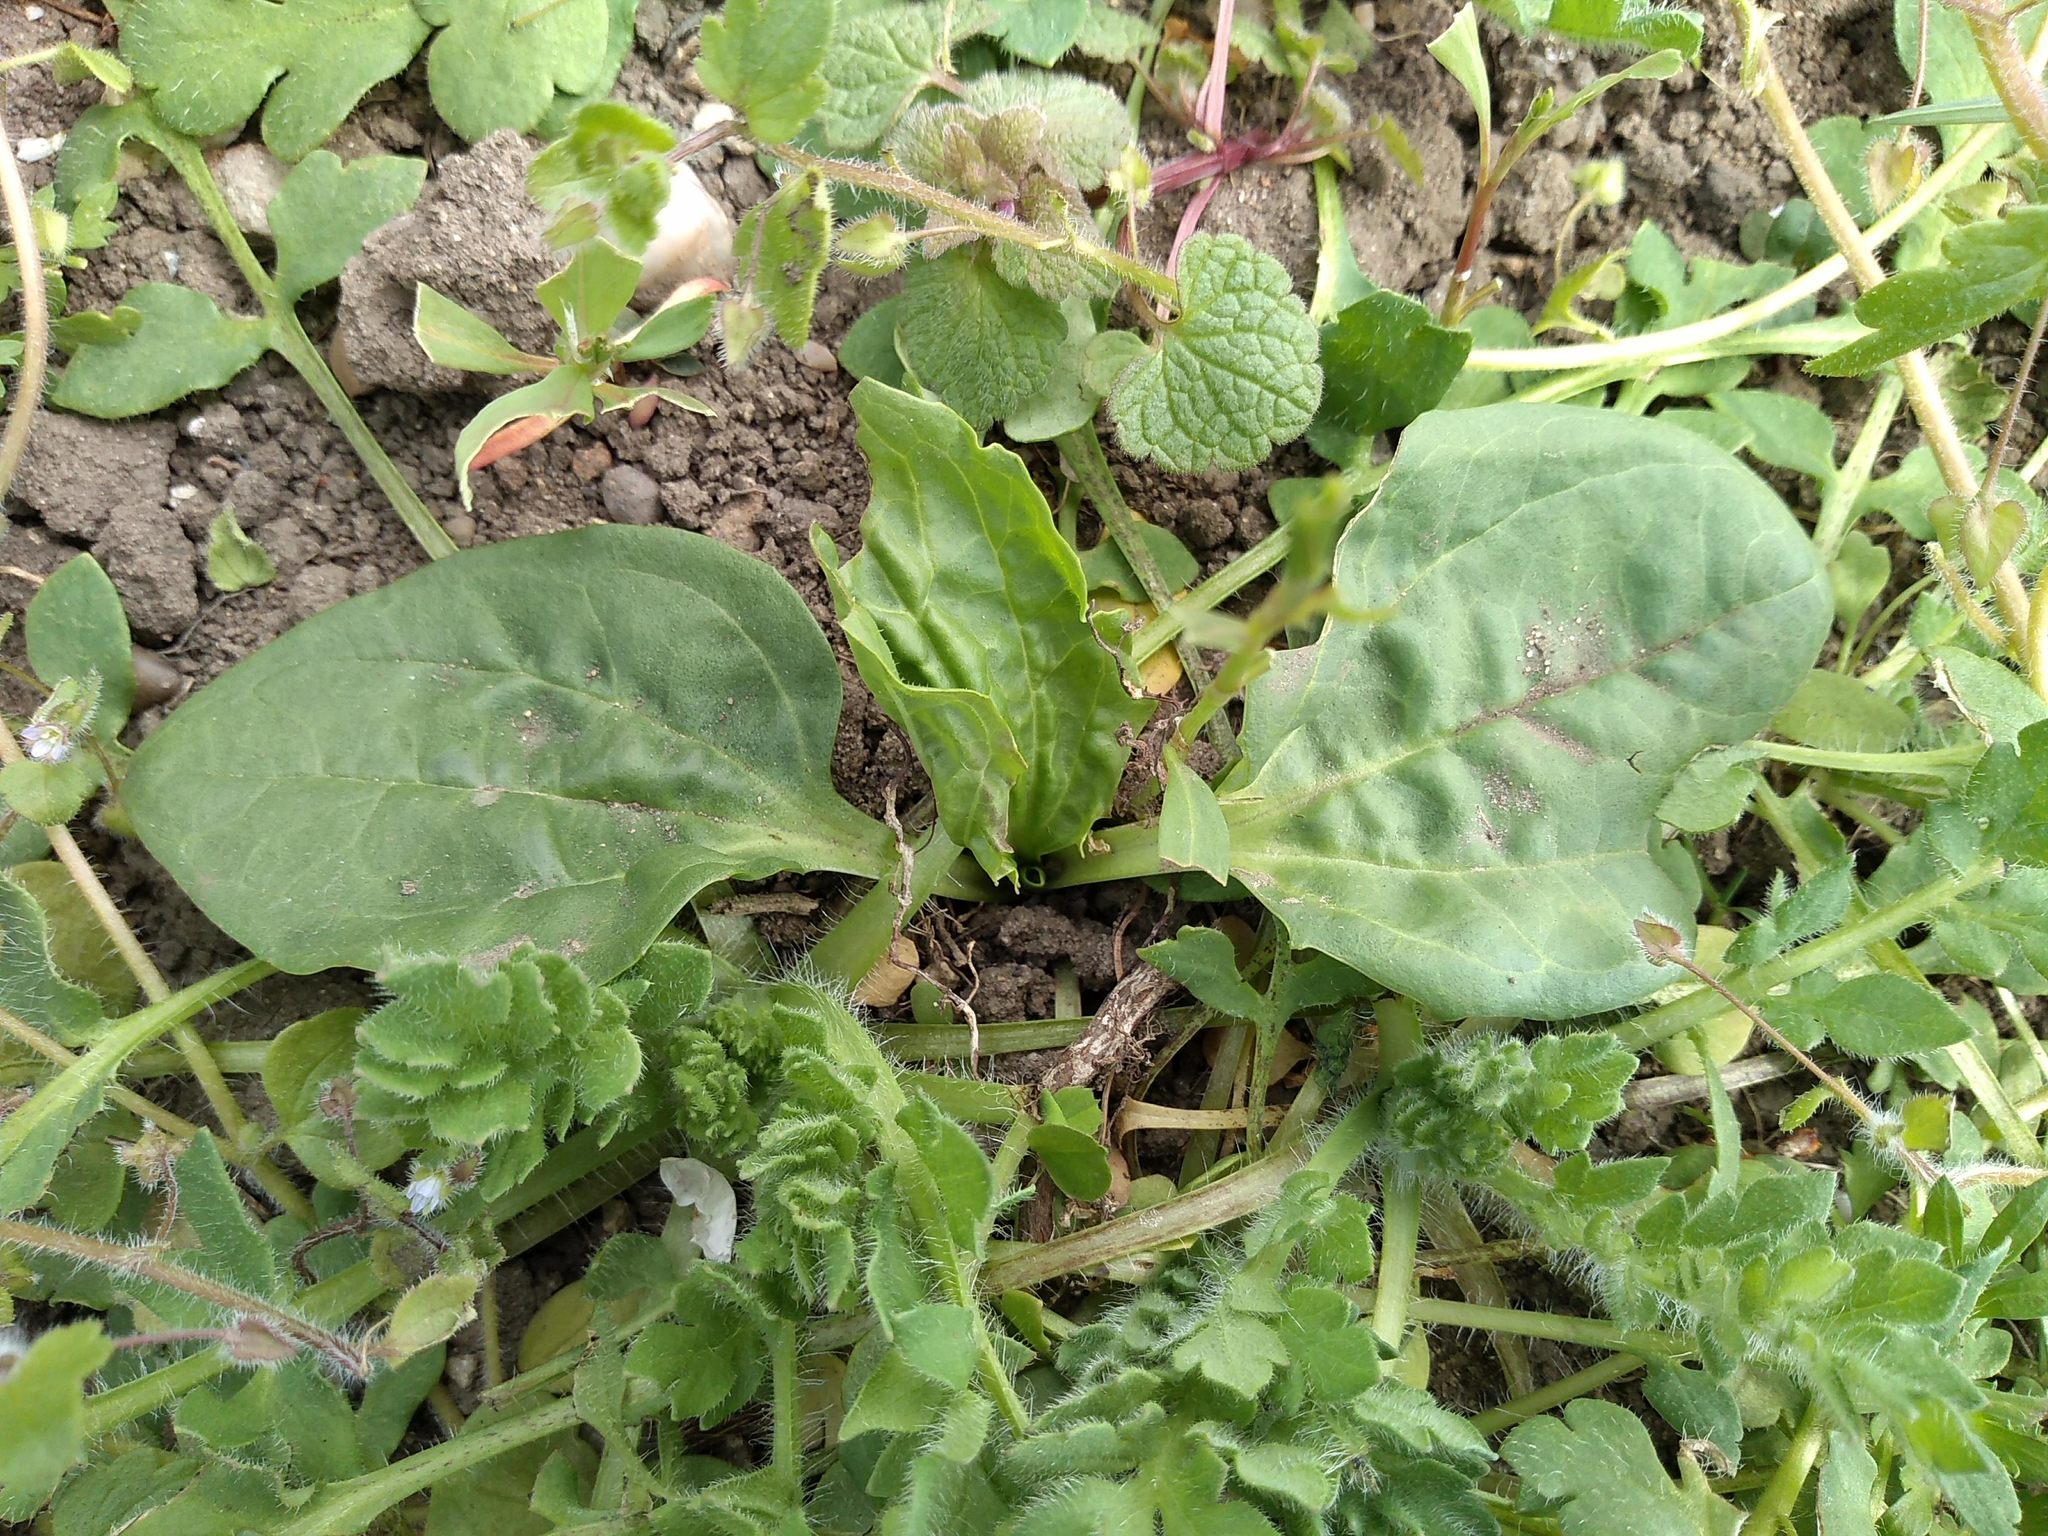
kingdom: Plantae
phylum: Tracheophyta
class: Magnoliopsida
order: Lamiales
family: Plantaginaceae
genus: Plantago
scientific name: Plantago major
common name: Common plantain
